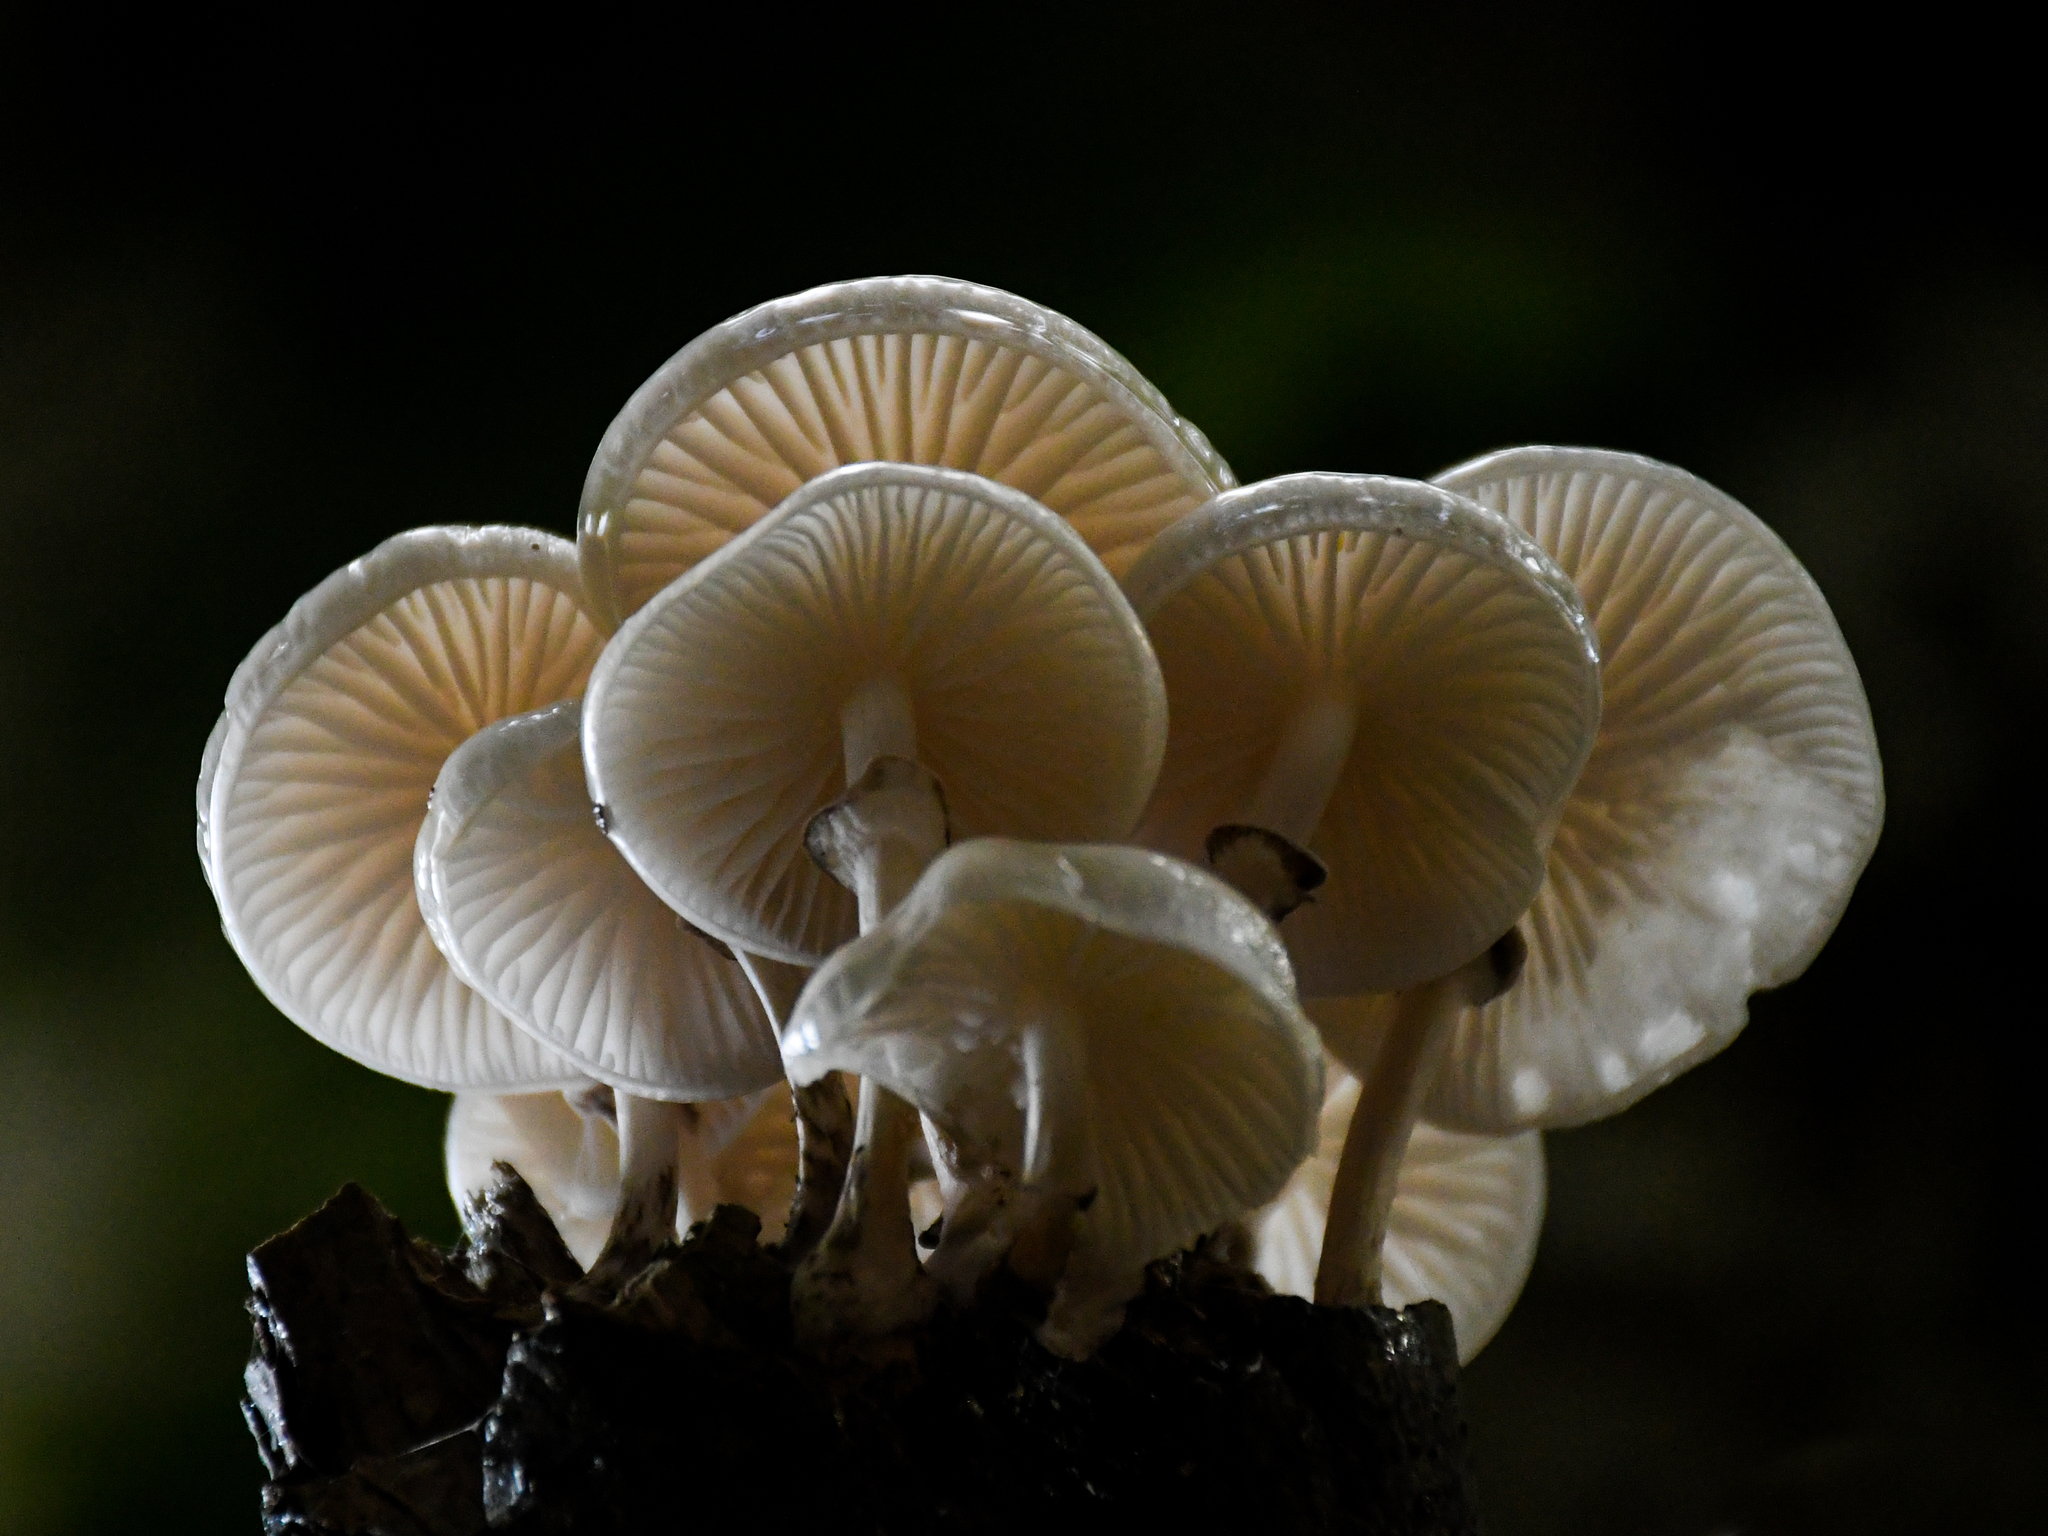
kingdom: Fungi
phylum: Basidiomycota
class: Agaricomycetes
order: Agaricales
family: Physalacriaceae
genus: Mucidula
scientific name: Mucidula mucida
